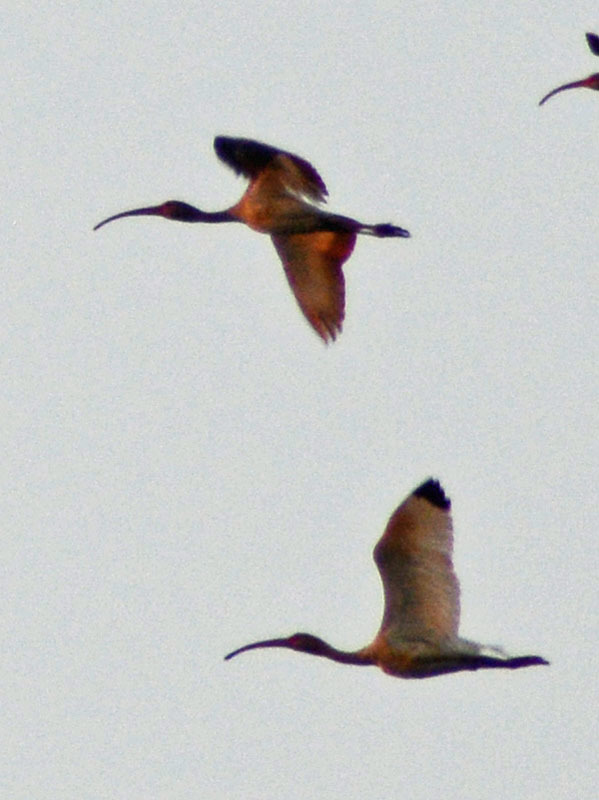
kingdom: Animalia
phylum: Chordata
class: Aves
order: Pelecaniformes
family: Threskiornithidae
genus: Eudocimus
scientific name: Eudocimus albus
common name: White ibis
